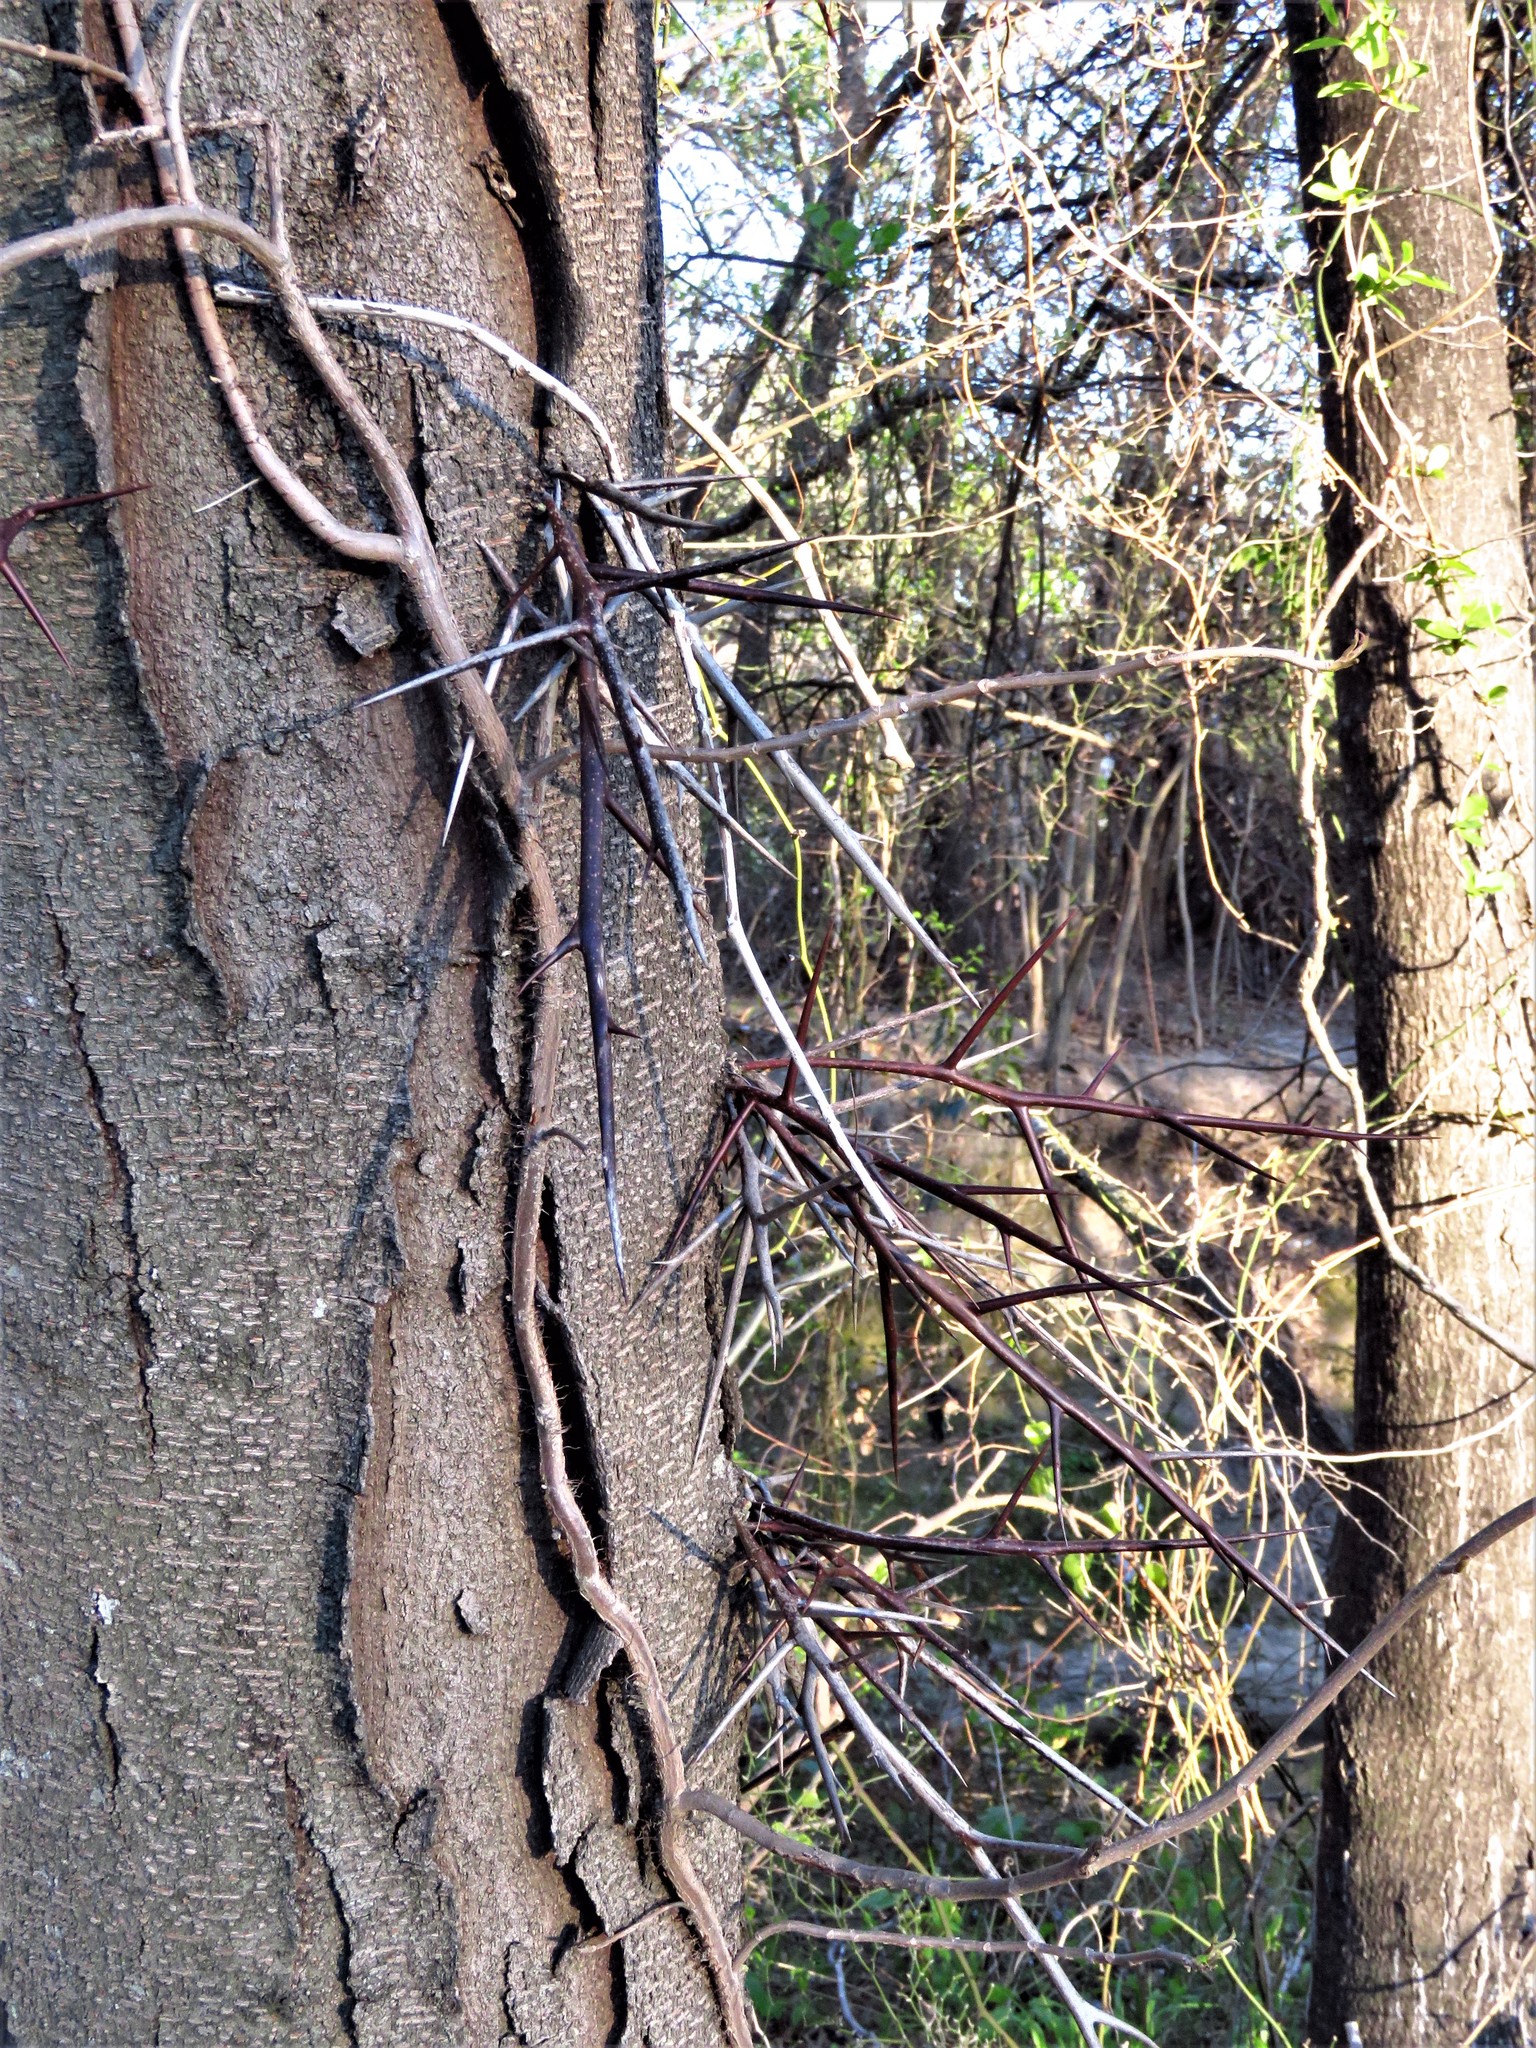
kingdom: Plantae
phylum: Tracheophyta
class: Magnoliopsida
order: Fabales
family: Fabaceae
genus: Gleditsia
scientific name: Gleditsia triacanthos
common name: Common honeylocust
